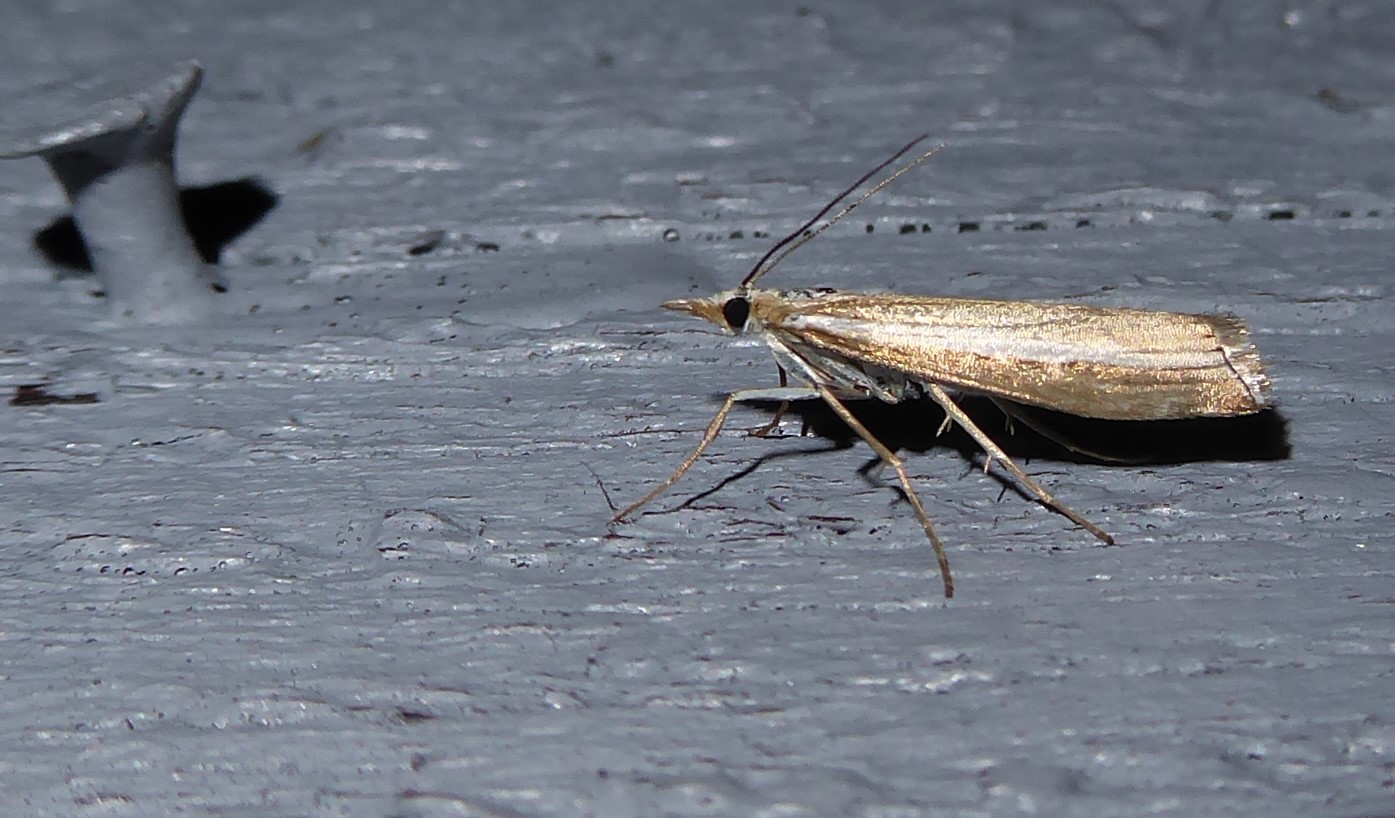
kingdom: Animalia
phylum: Arthropoda
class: Insecta
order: Lepidoptera
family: Crambidae
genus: Orocrambus
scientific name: Orocrambus vittellus
